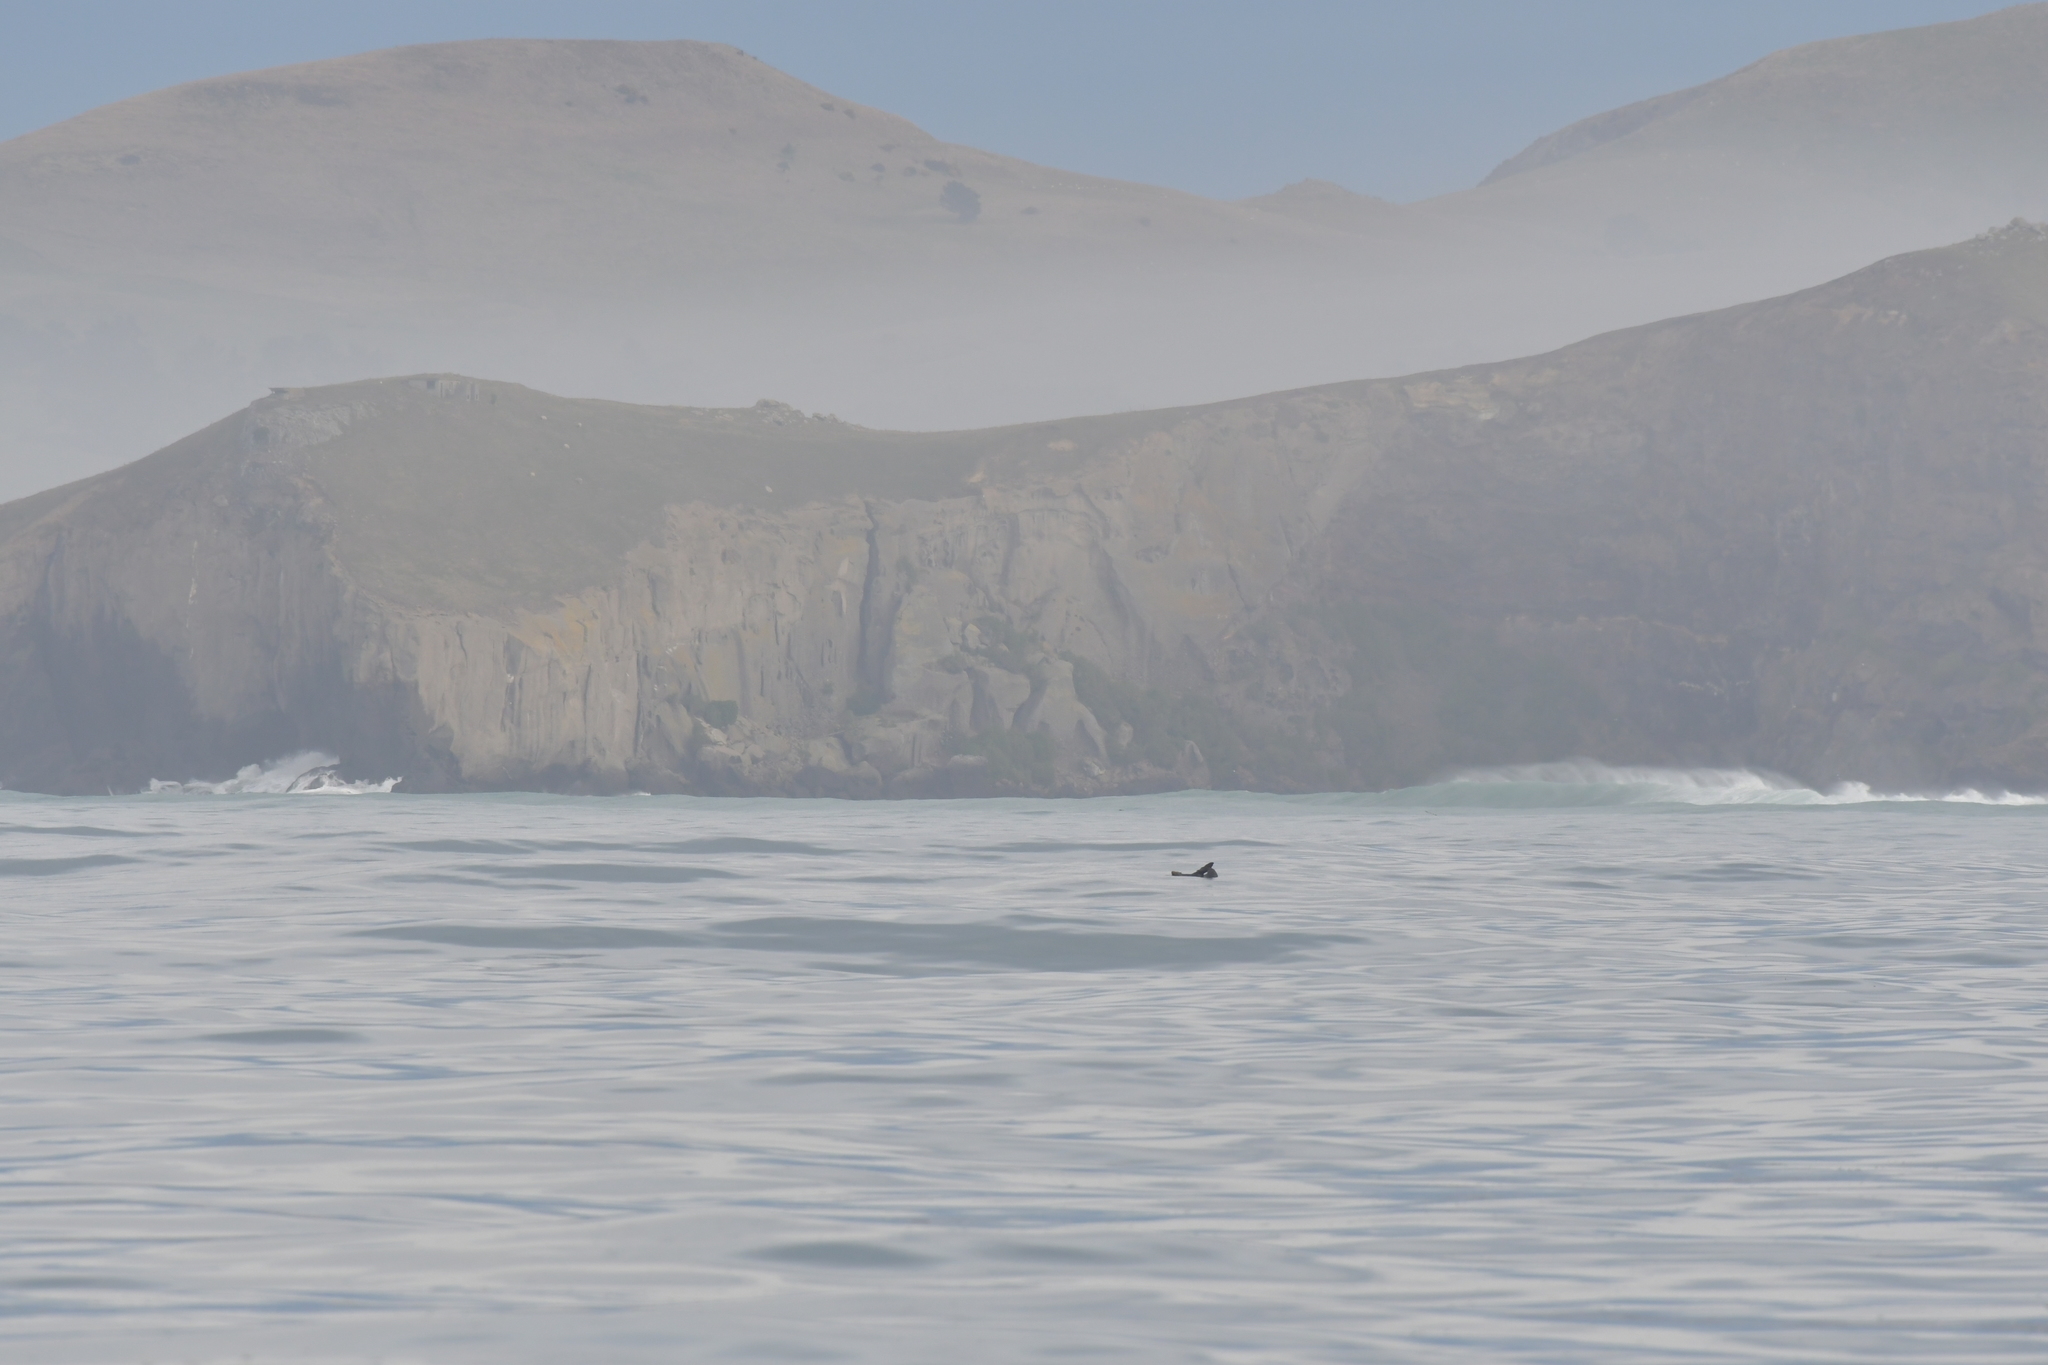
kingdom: Animalia
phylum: Chordata
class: Mammalia
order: Carnivora
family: Otariidae
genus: Arctocephalus
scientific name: Arctocephalus forsteri
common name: New zealand fur seal
